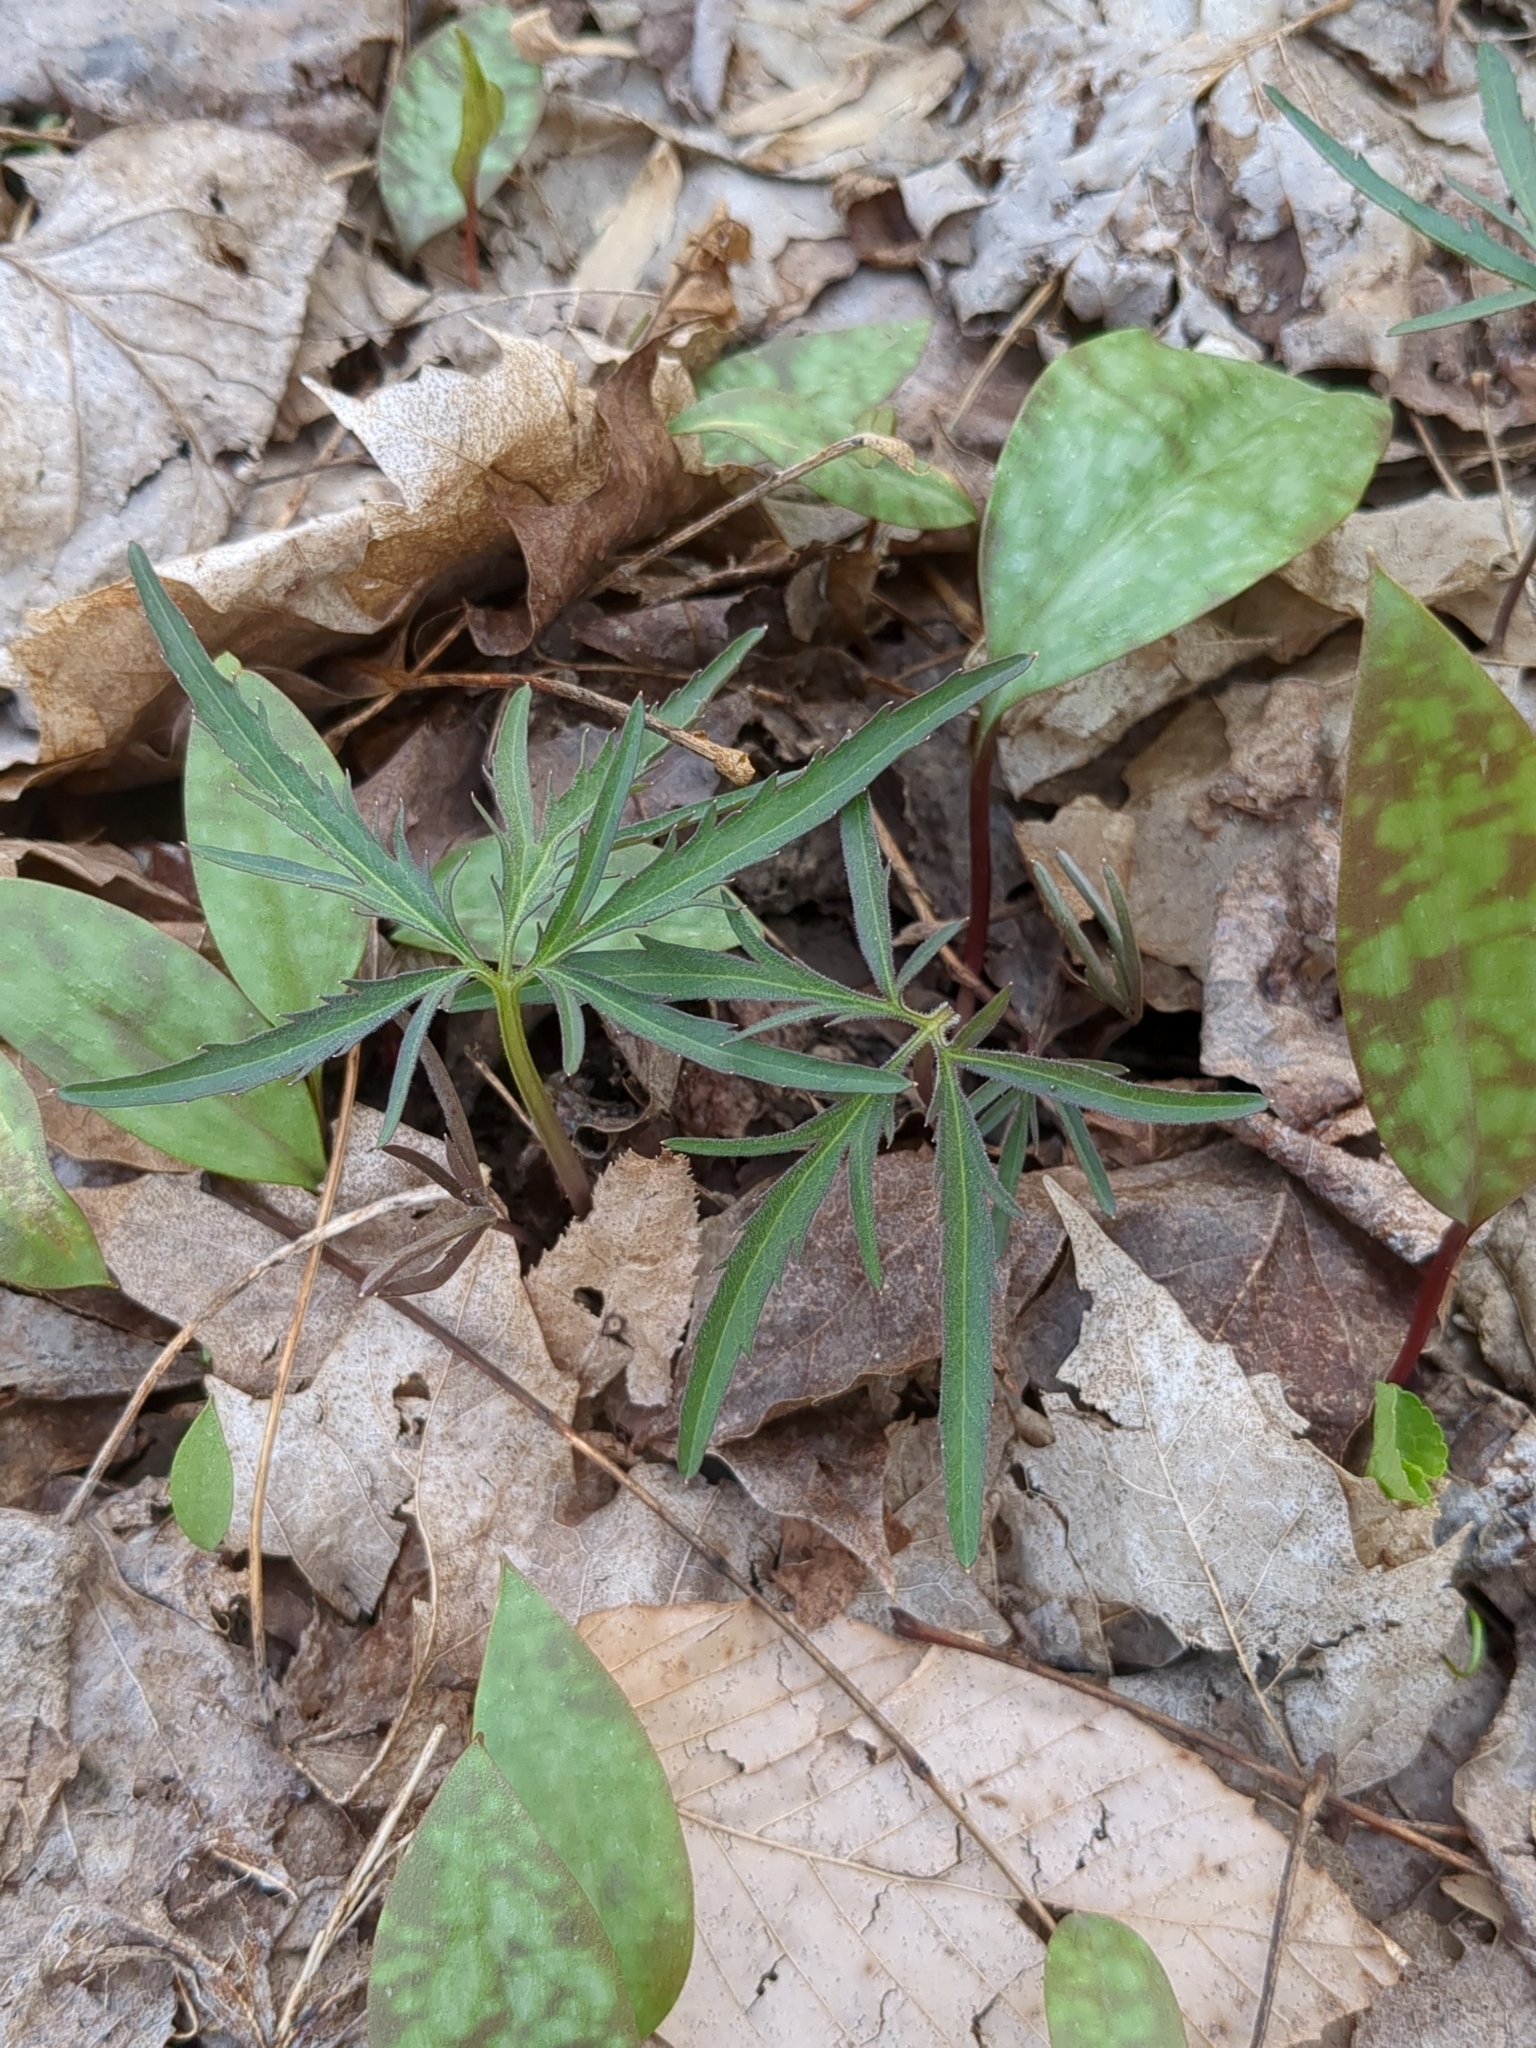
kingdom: Plantae
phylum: Tracheophyta
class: Magnoliopsida
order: Brassicales
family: Brassicaceae
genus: Cardamine
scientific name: Cardamine concatenata
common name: Cut-leaf toothcup
